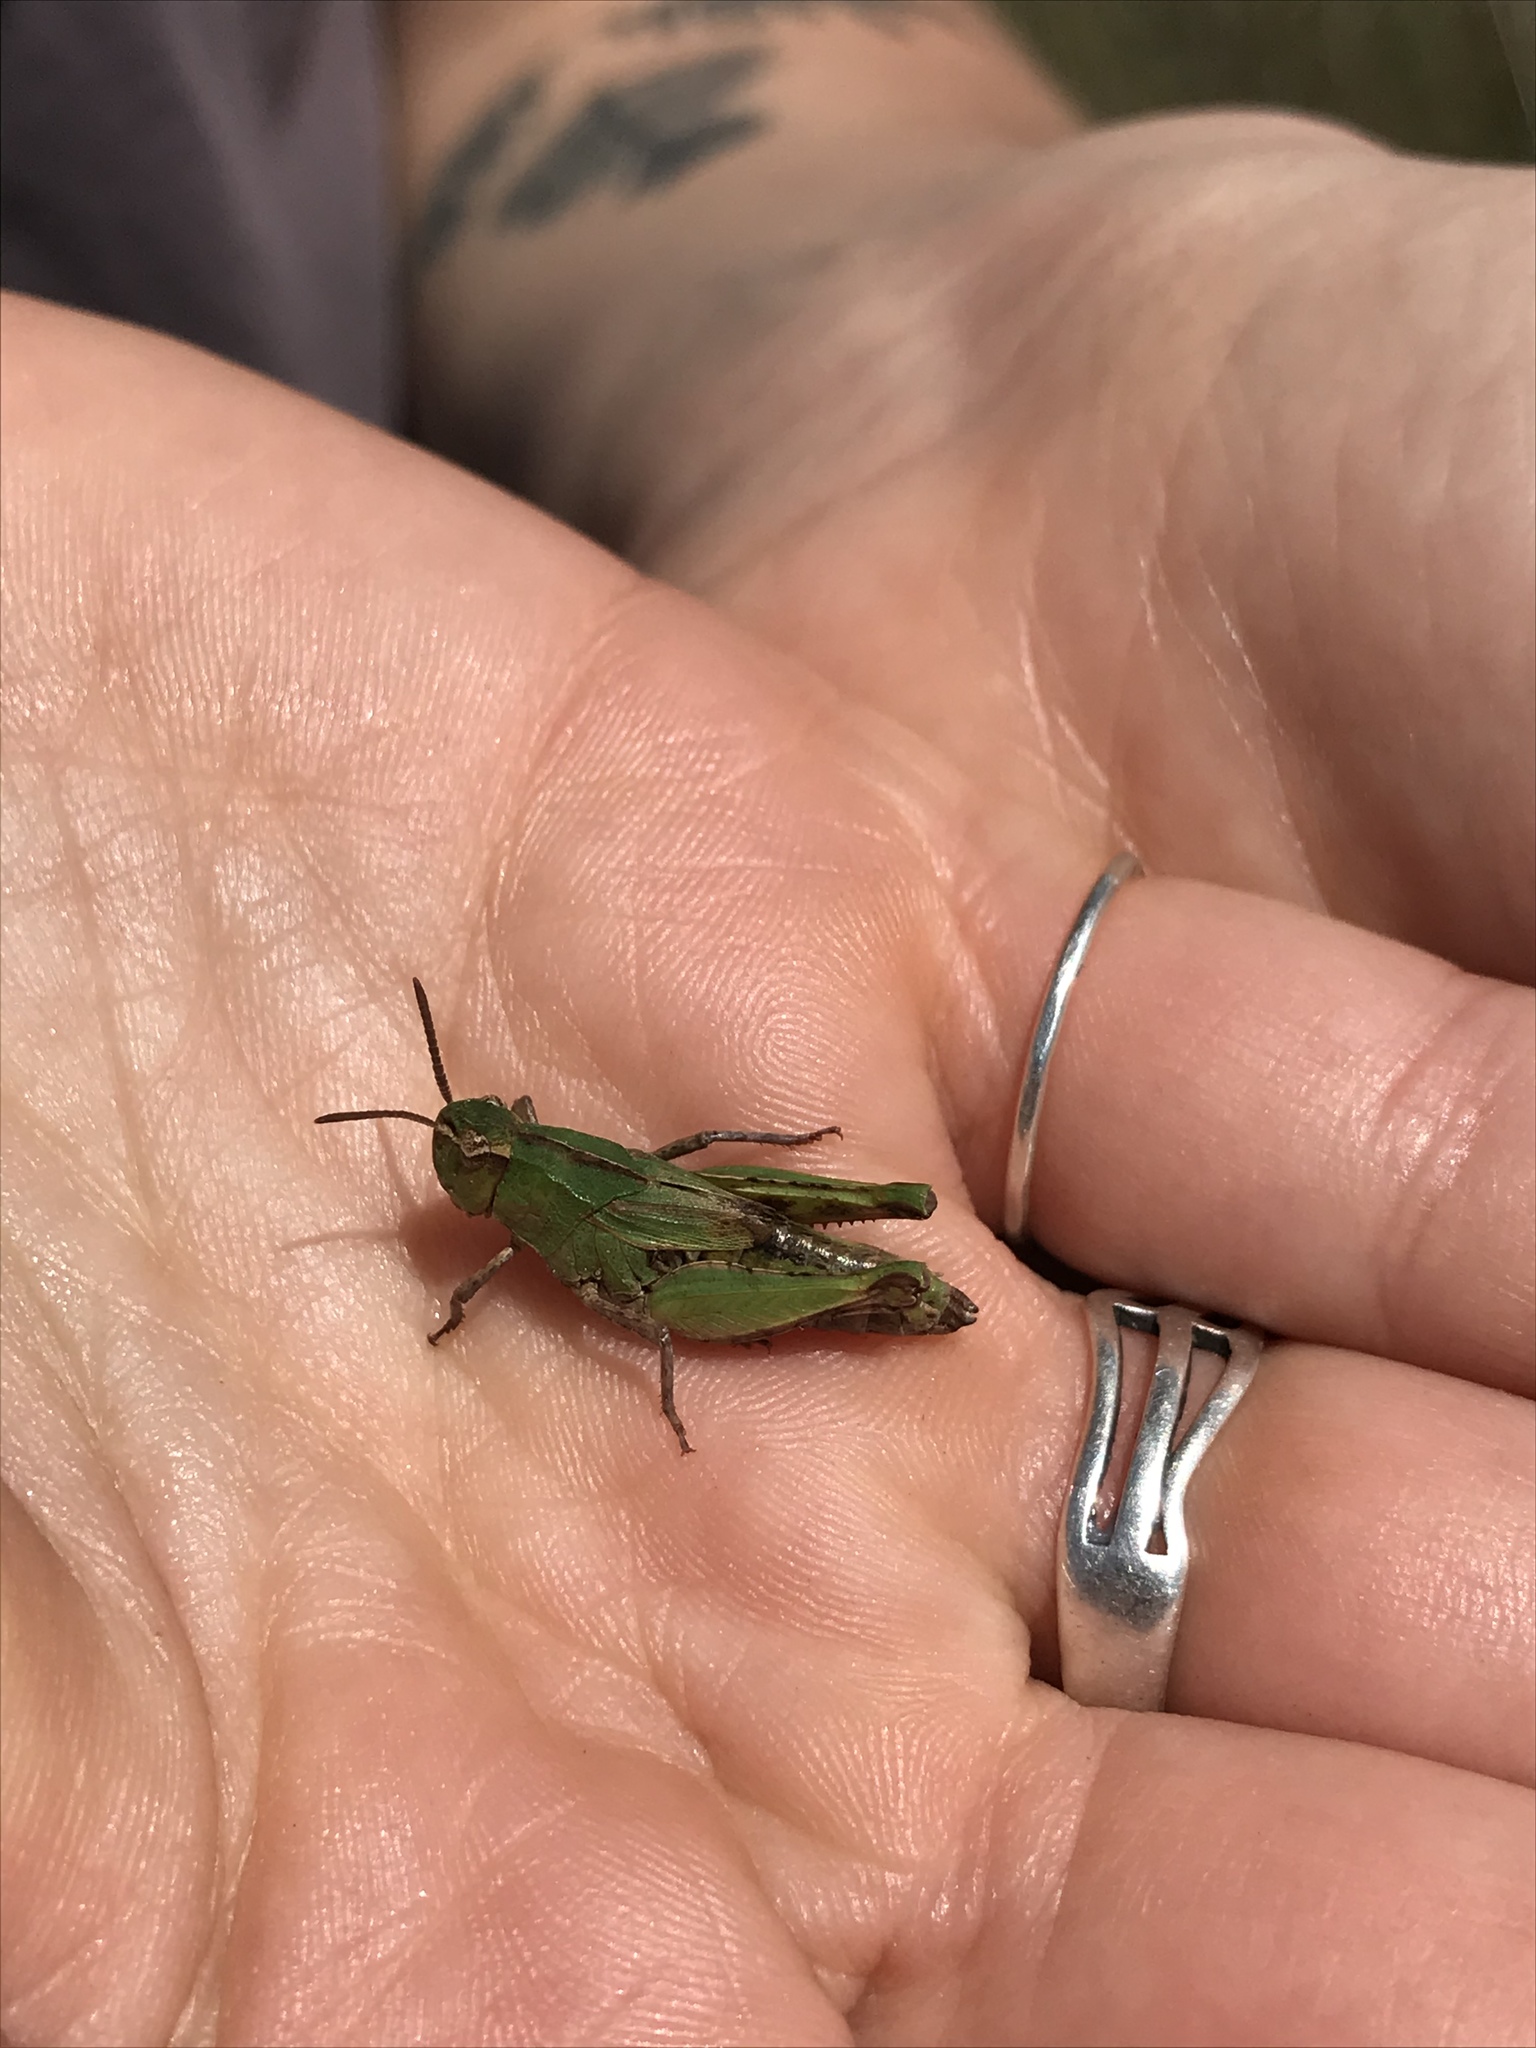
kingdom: Animalia
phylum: Arthropoda
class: Insecta
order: Orthoptera
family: Acrididae
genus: Chimarocephala
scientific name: Chimarocephala pacifica
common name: Painted meadow grasshopper
